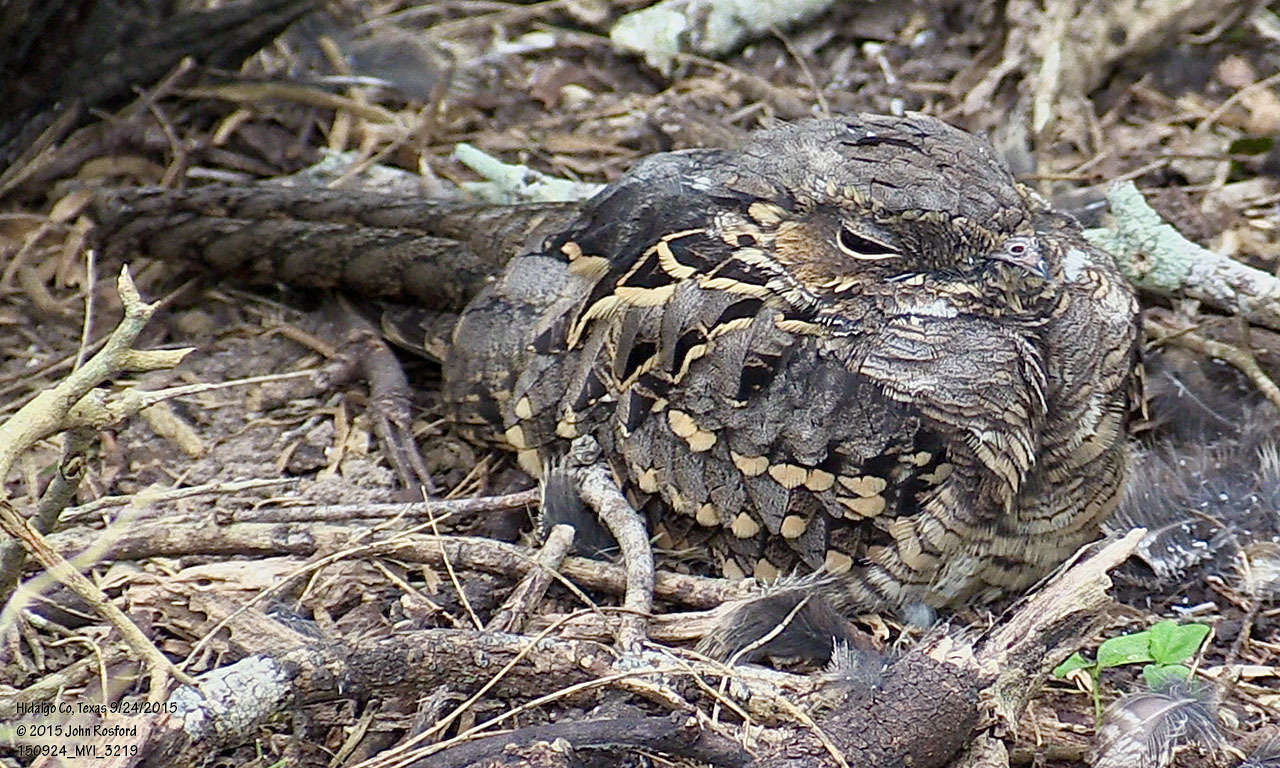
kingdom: Animalia
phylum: Chordata
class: Aves
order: Caprimulgiformes
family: Caprimulgidae
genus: Nyctidromus
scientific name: Nyctidromus albicollis
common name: Pauraque
